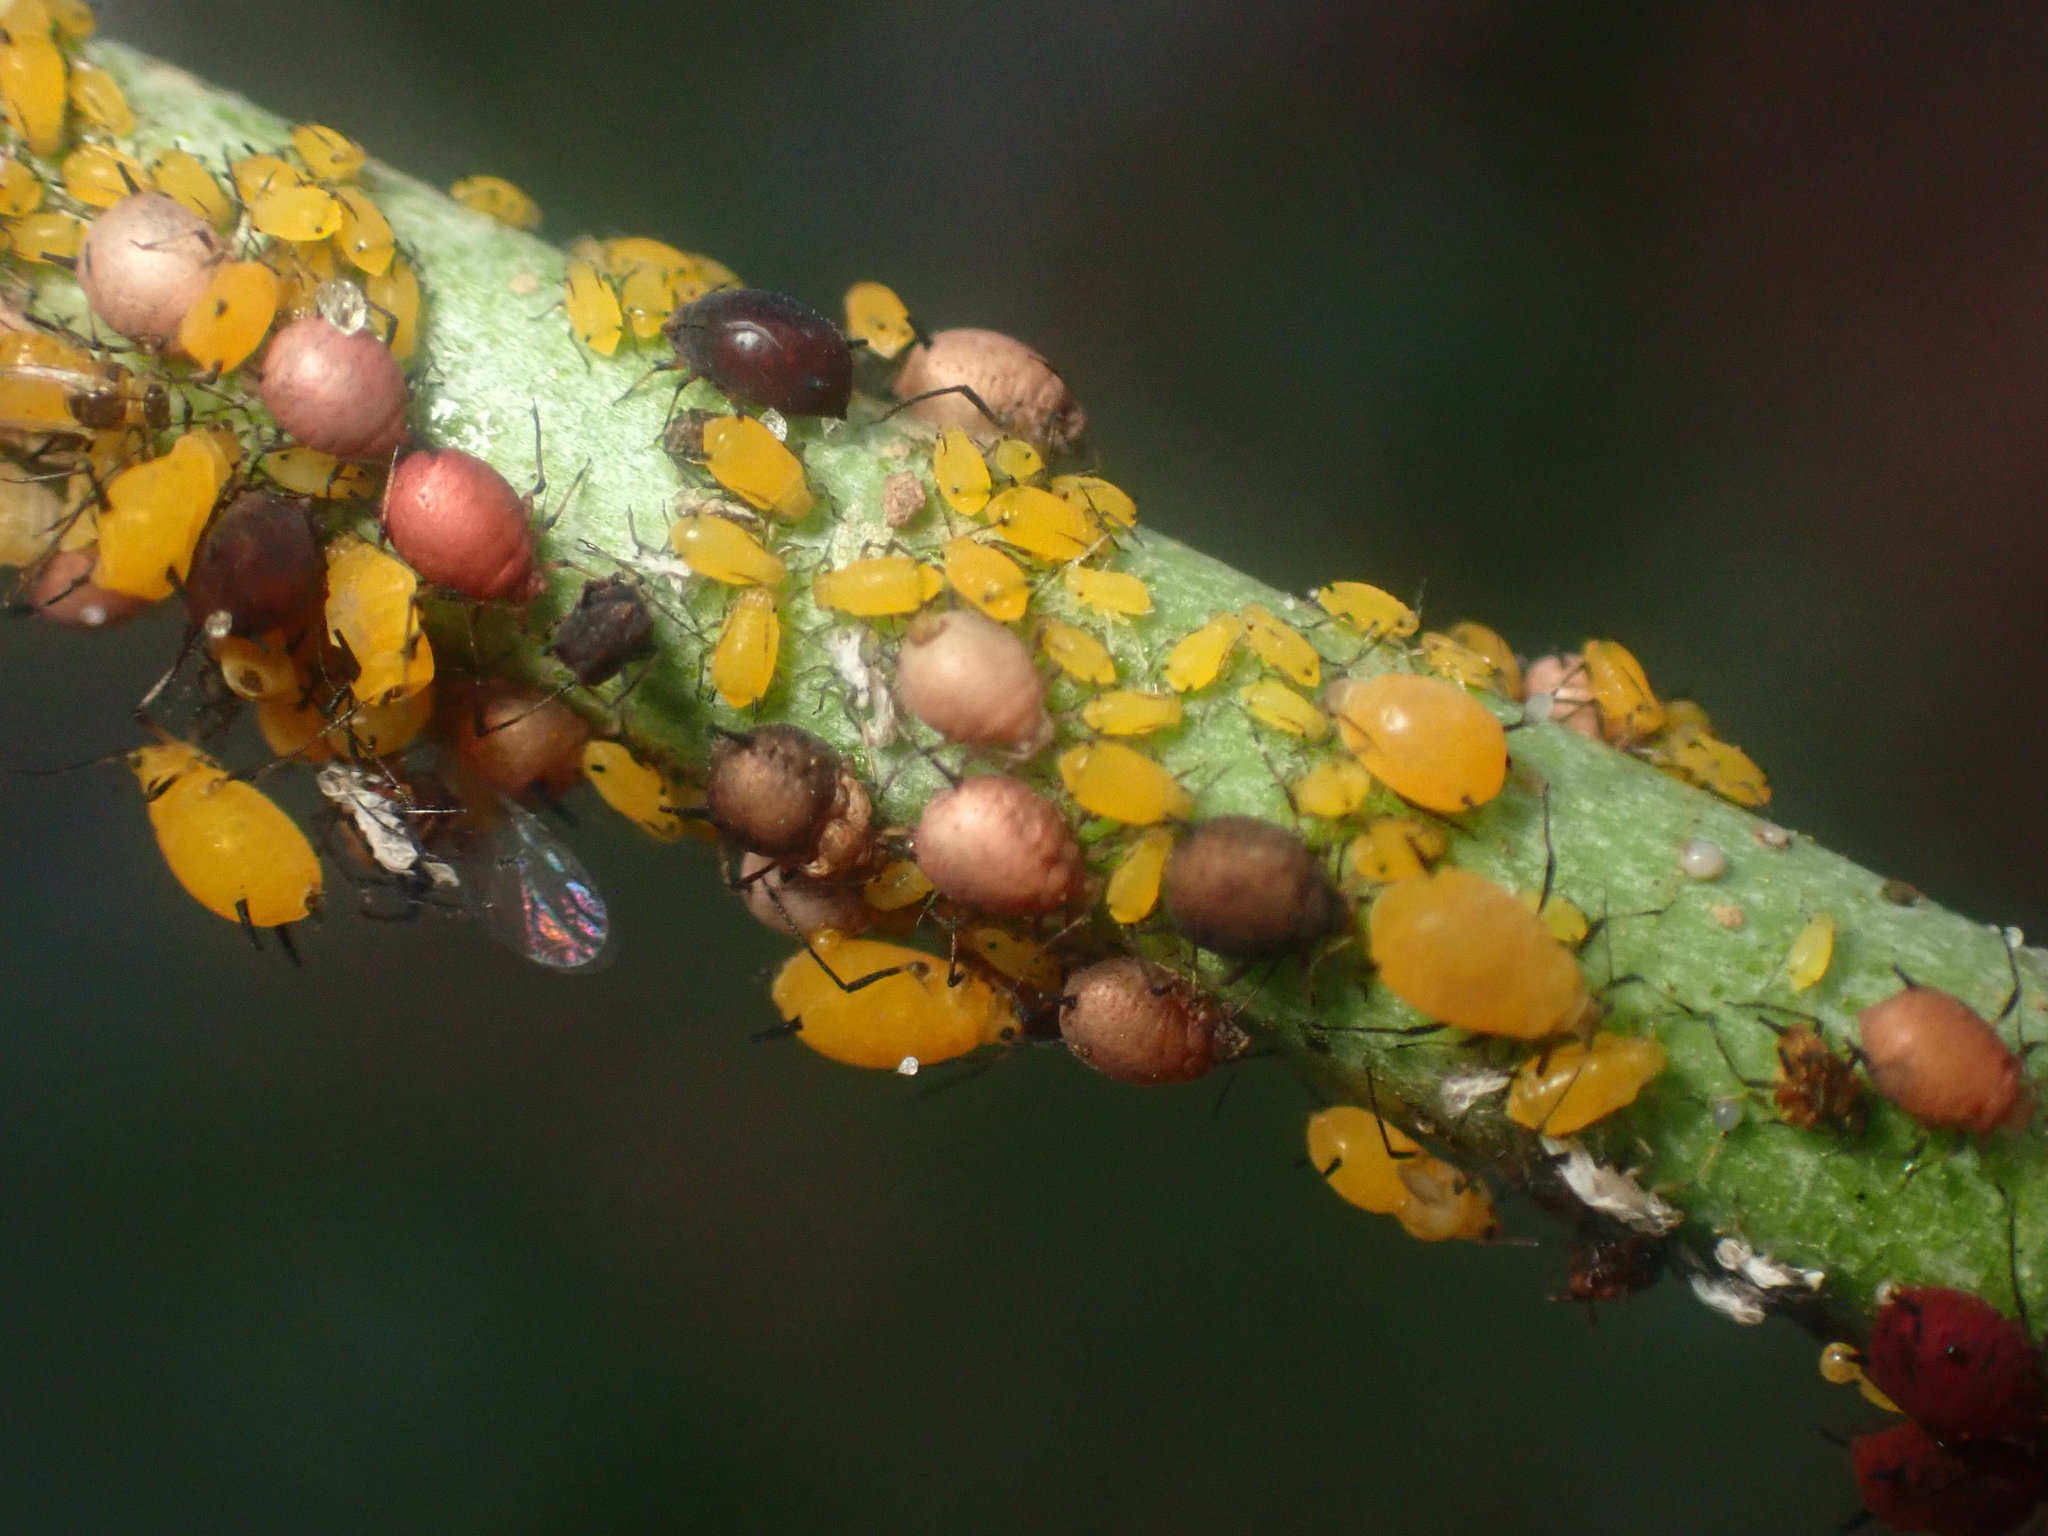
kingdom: Animalia
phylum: Arthropoda
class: Insecta
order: Hemiptera
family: Aphididae
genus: Aphis
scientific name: Aphis nerii
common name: Oleander aphid
